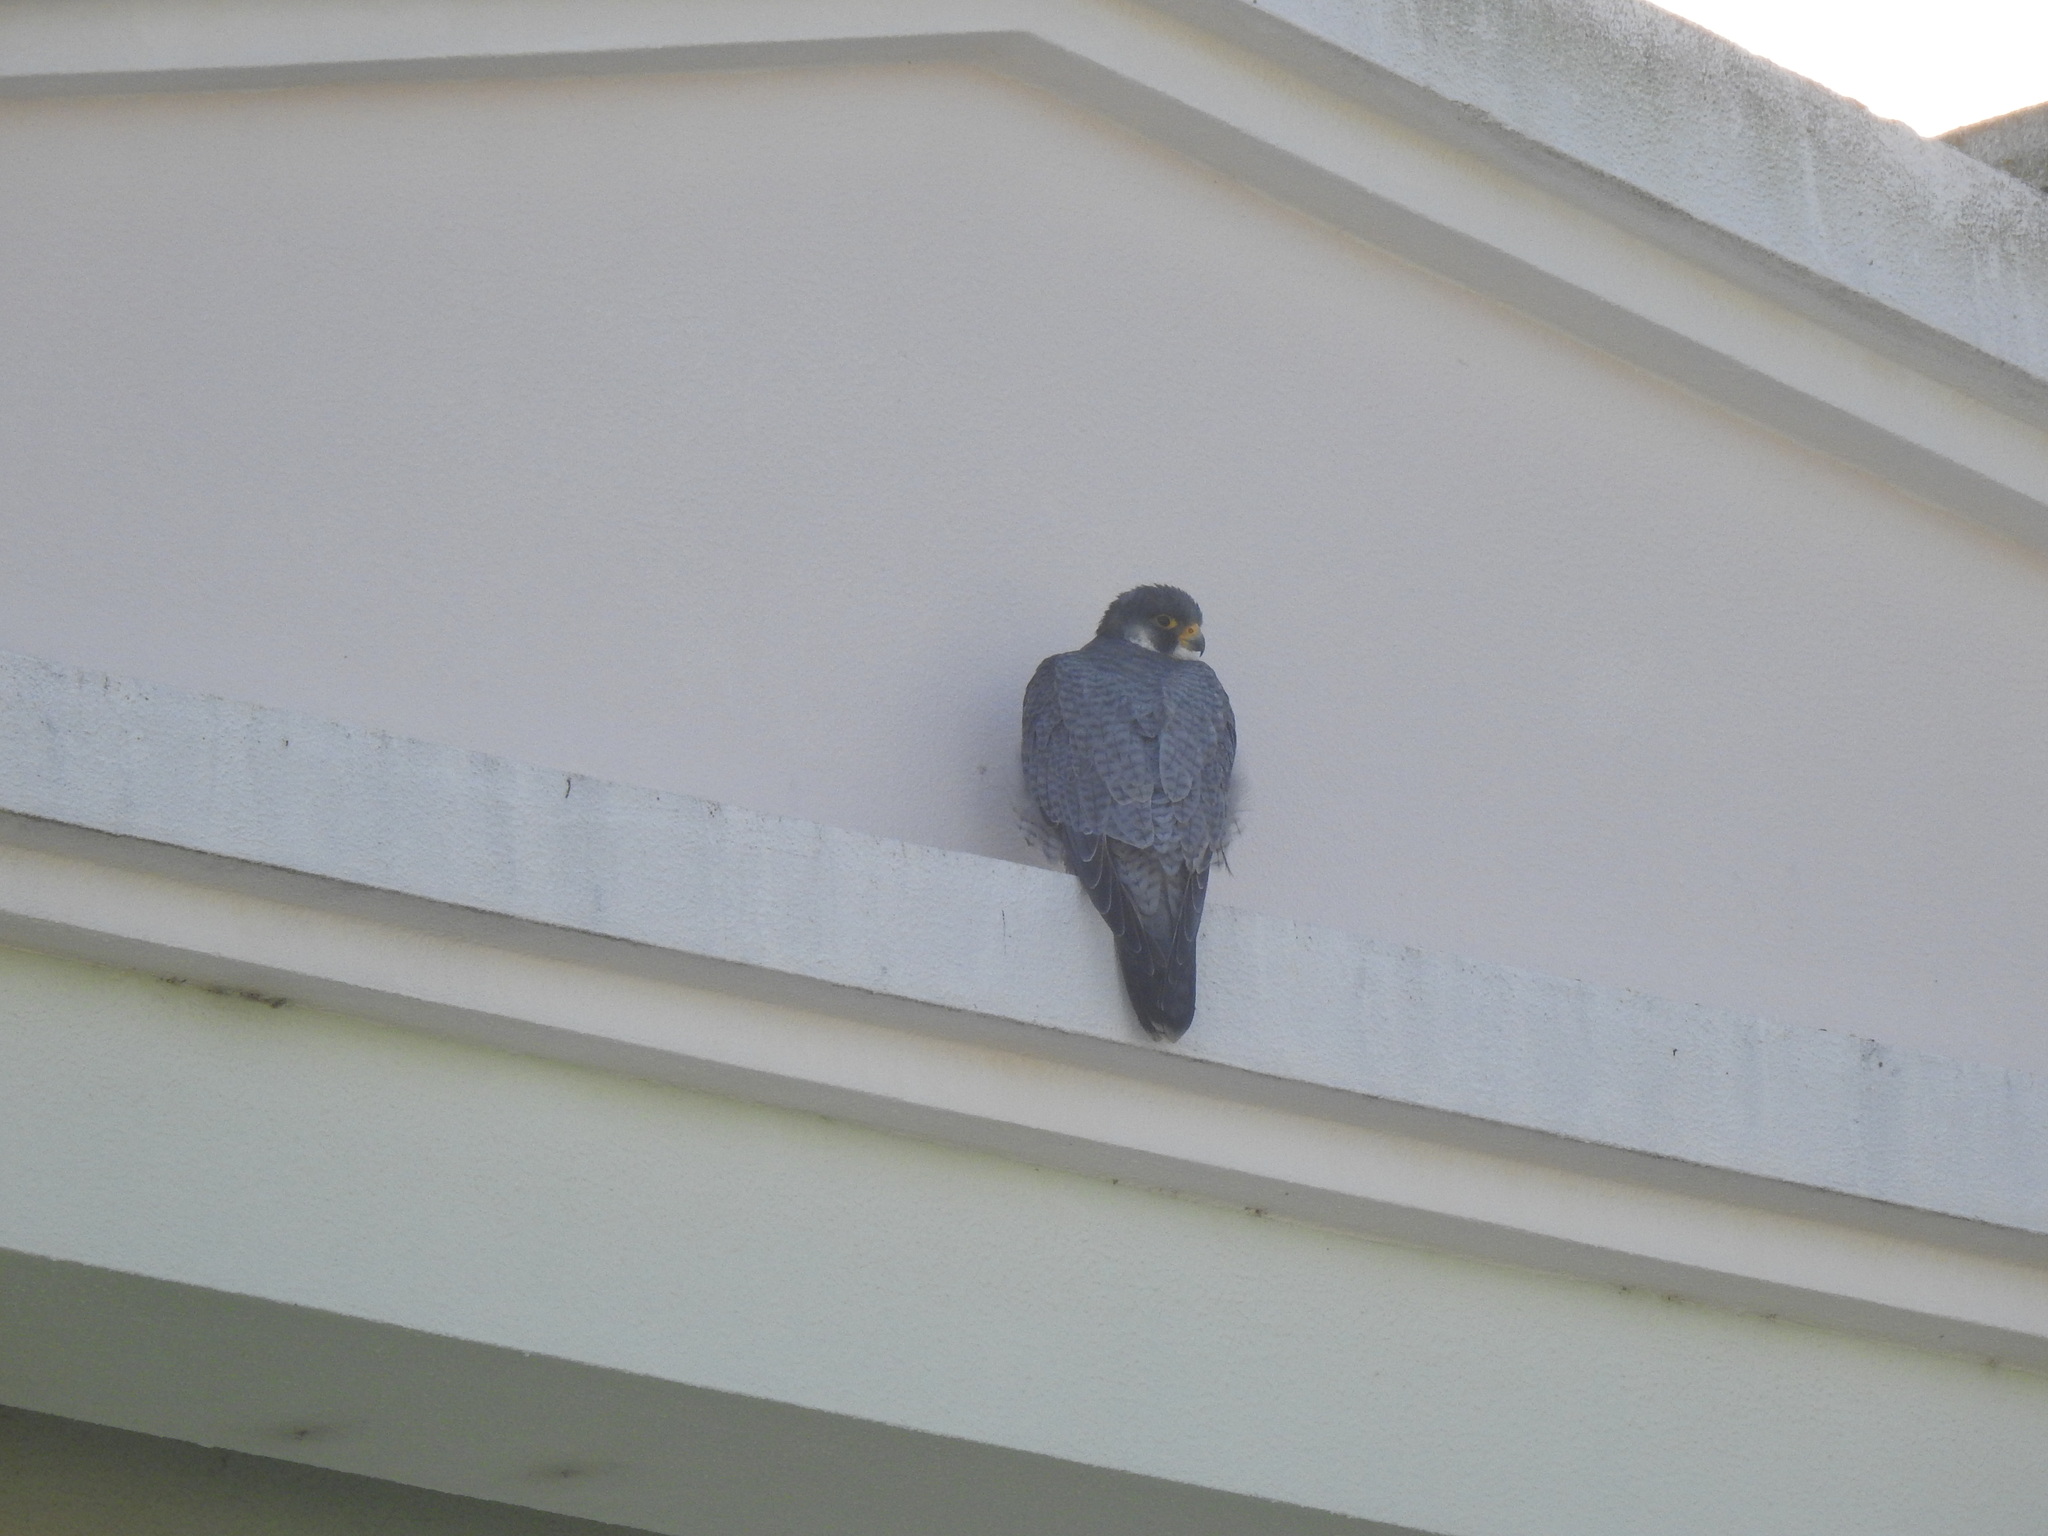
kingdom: Animalia
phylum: Chordata
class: Aves
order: Falconiformes
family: Falconidae
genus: Falco
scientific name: Falco peregrinus
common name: Peregrine falcon
